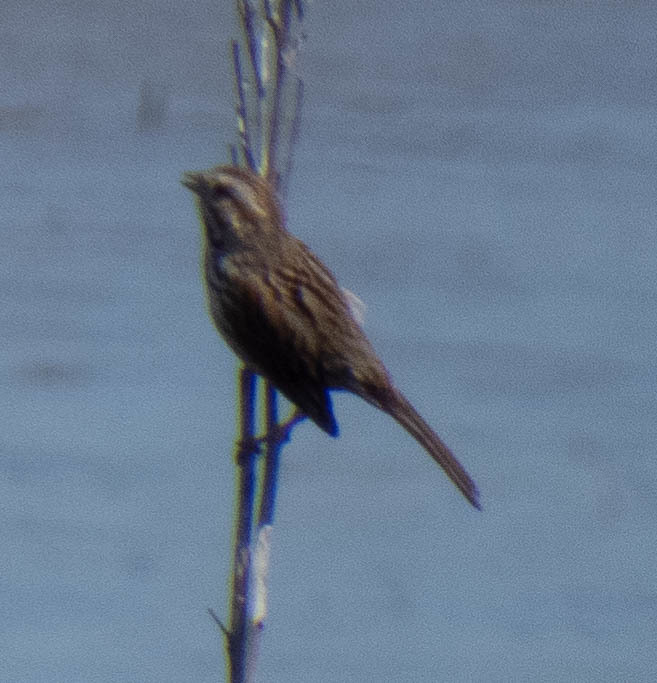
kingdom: Animalia
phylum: Chordata
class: Aves
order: Passeriformes
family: Passerellidae
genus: Melospiza
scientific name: Melospiza melodia
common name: Song sparrow
